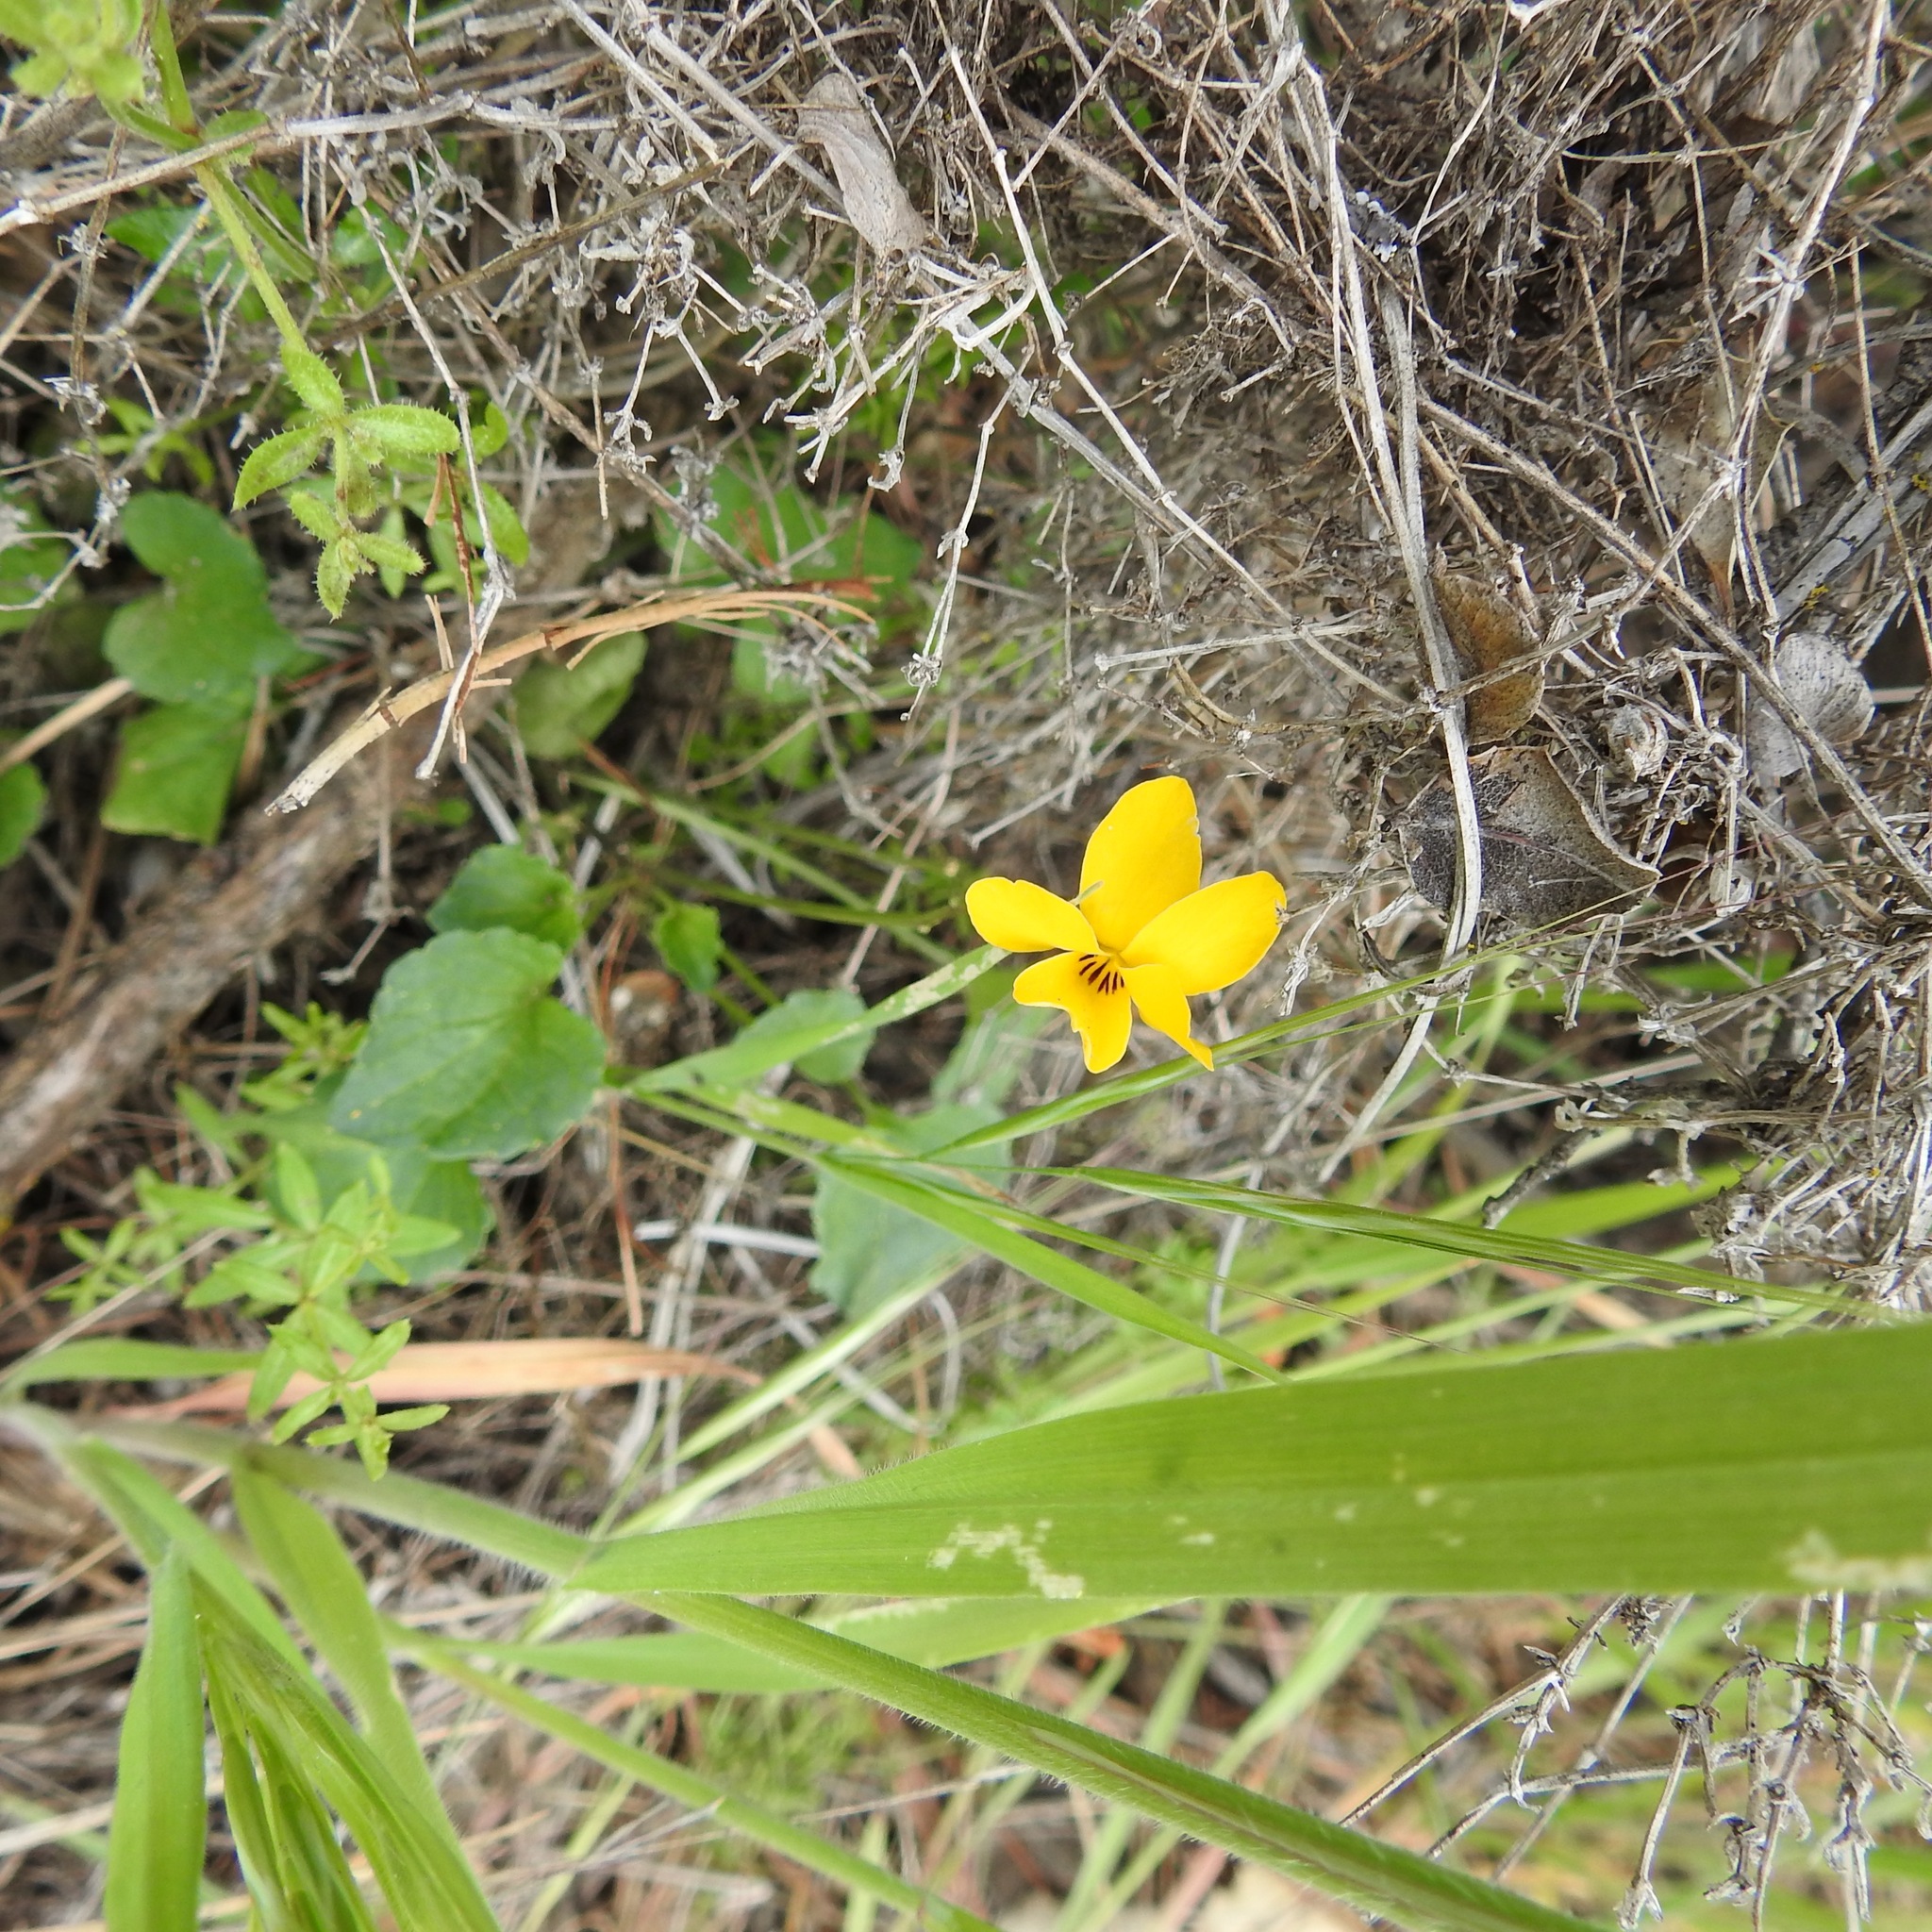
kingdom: Plantae
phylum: Tracheophyta
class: Magnoliopsida
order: Malpighiales
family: Violaceae
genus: Viola
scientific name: Viola pedunculata
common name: California golden violet
